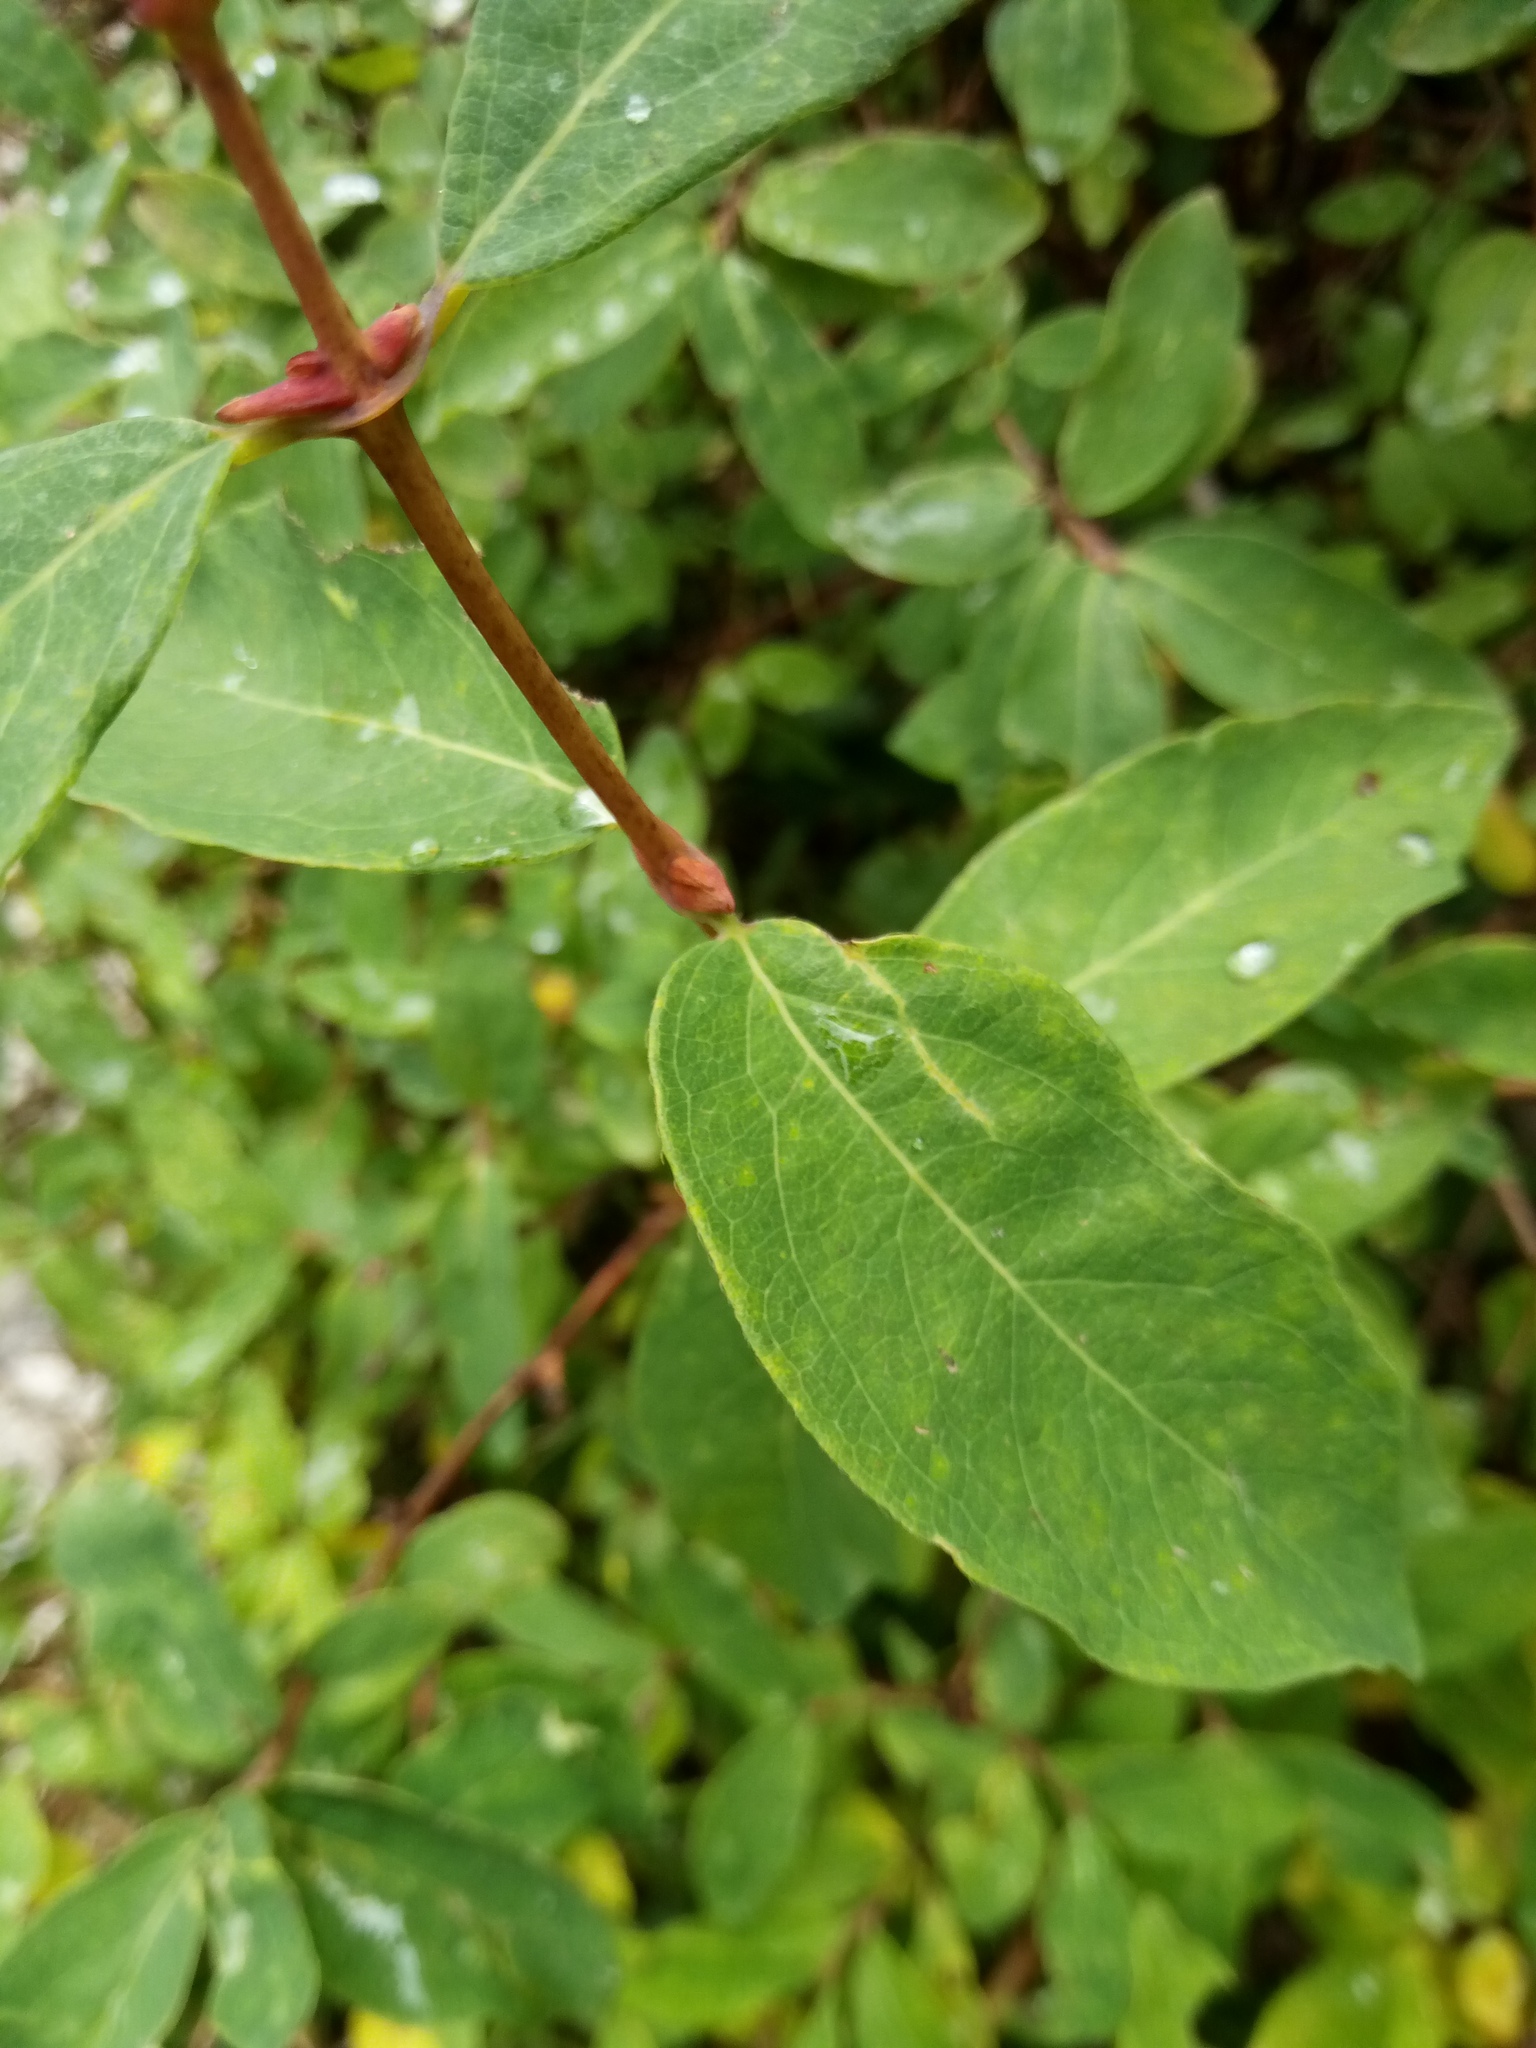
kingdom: Plantae
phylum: Tracheophyta
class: Magnoliopsida
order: Dipsacales
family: Caprifoliaceae
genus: Lonicera
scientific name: Lonicera caerulea
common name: Blue honeysuckle
